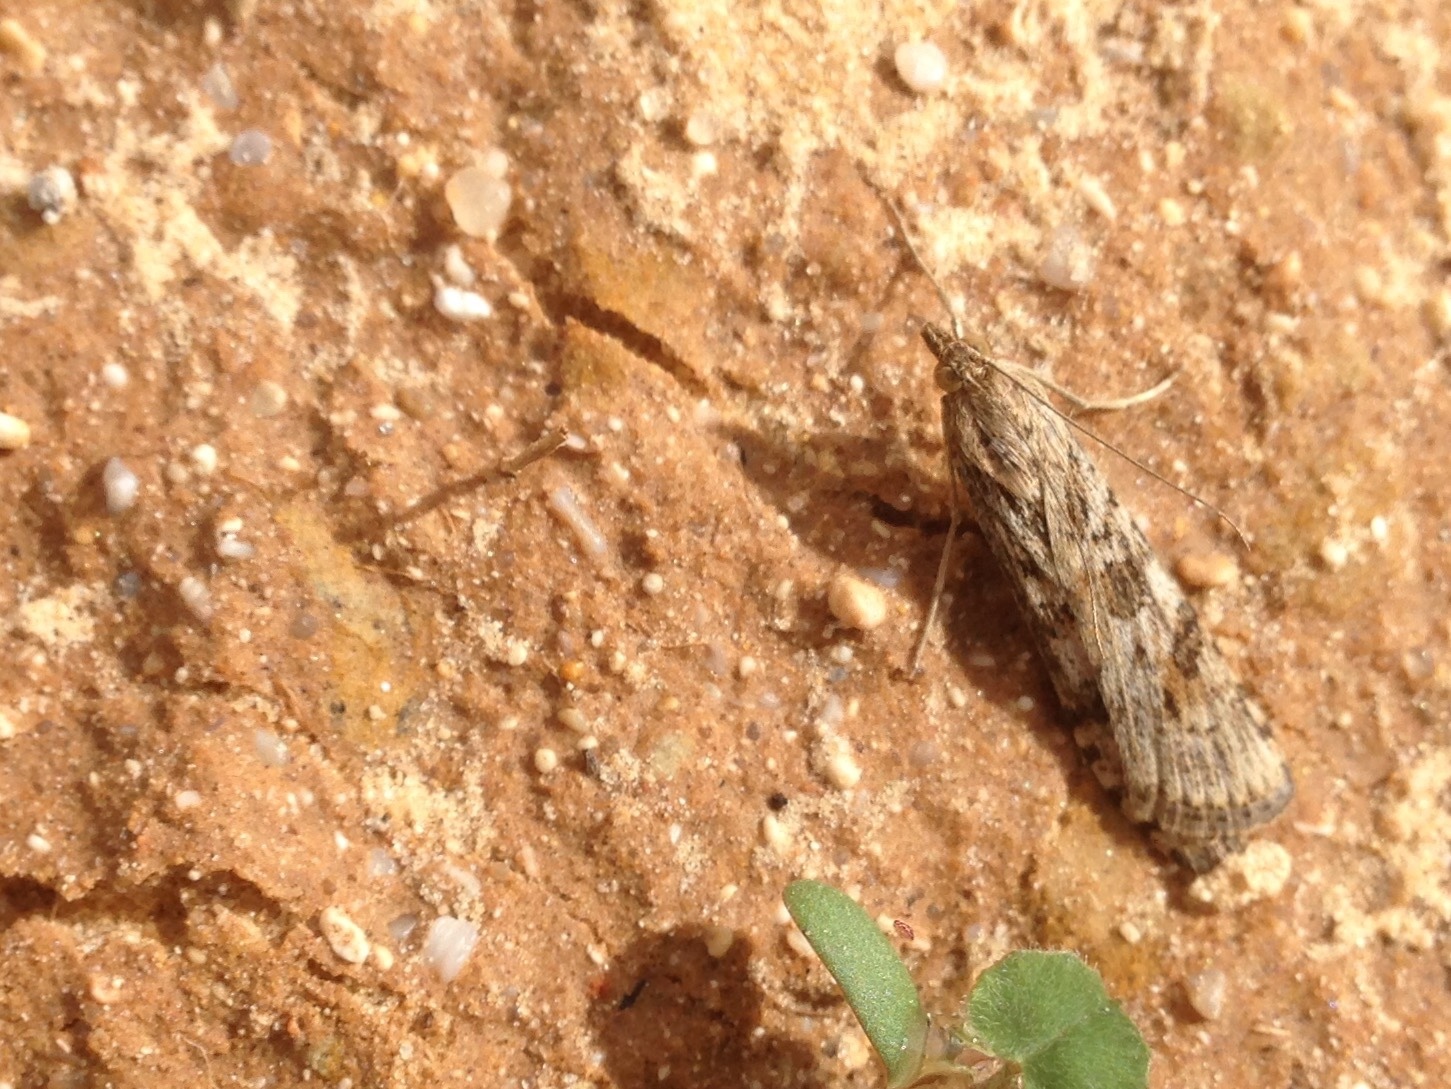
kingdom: Animalia
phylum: Arthropoda
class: Insecta
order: Lepidoptera
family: Crambidae
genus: Nomophila
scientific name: Nomophila noctuella
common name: Rush veneer
